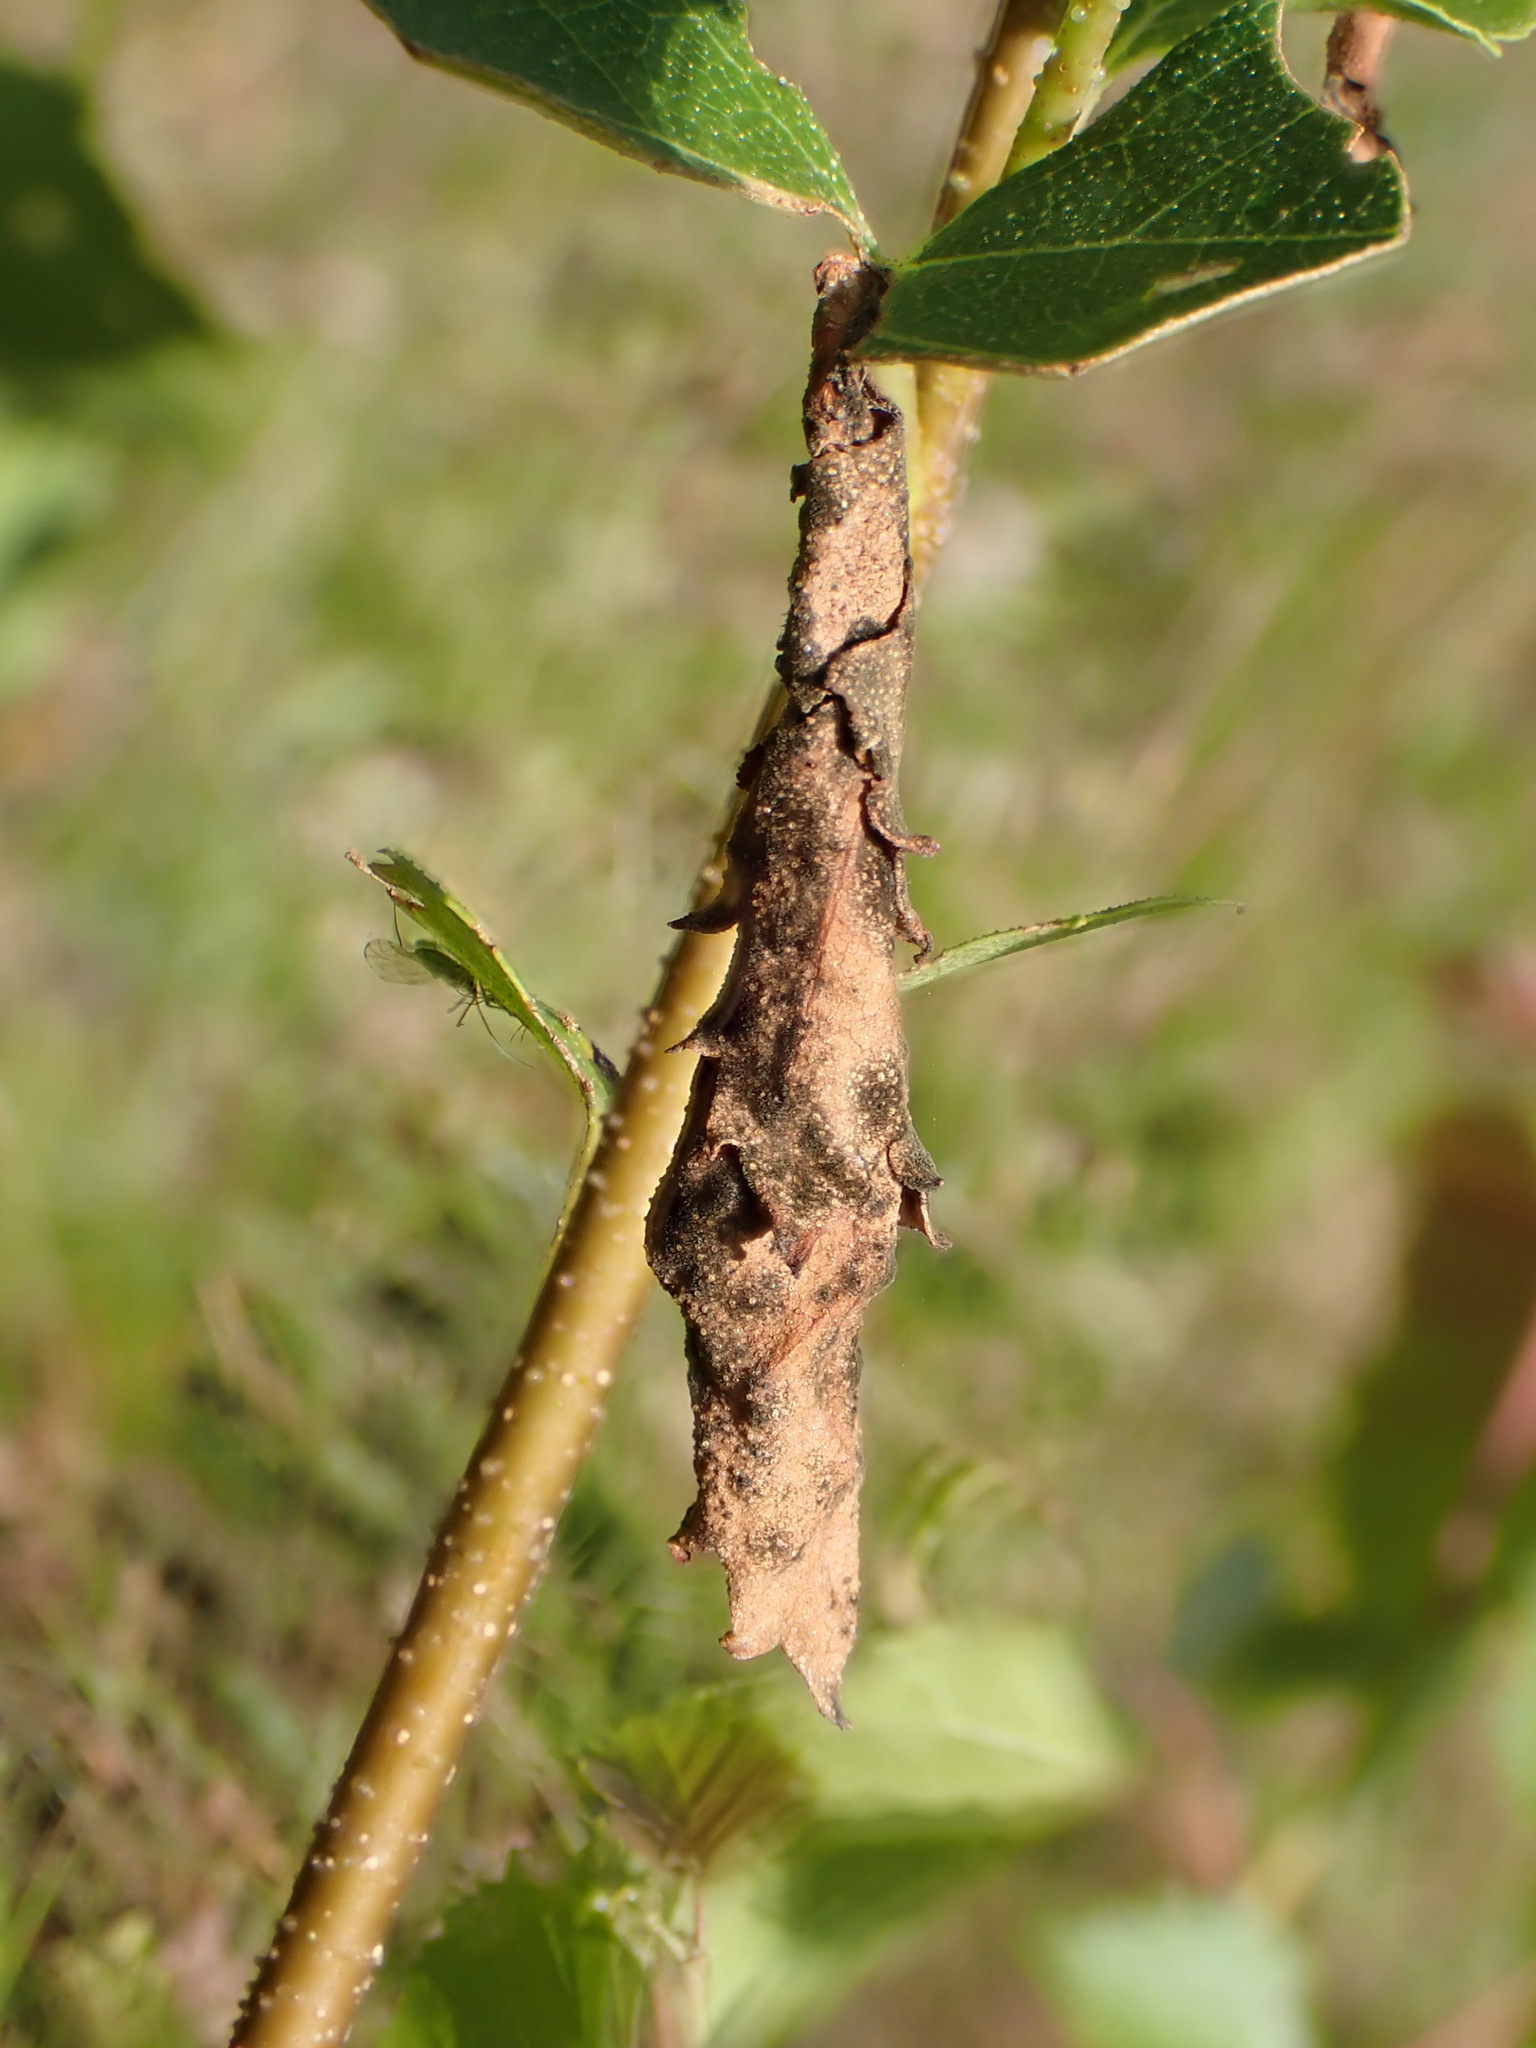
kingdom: Animalia
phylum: Arthropoda
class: Insecta
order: Coleoptera
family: Attelabidae
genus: Deporaus
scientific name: Deporaus betulae
